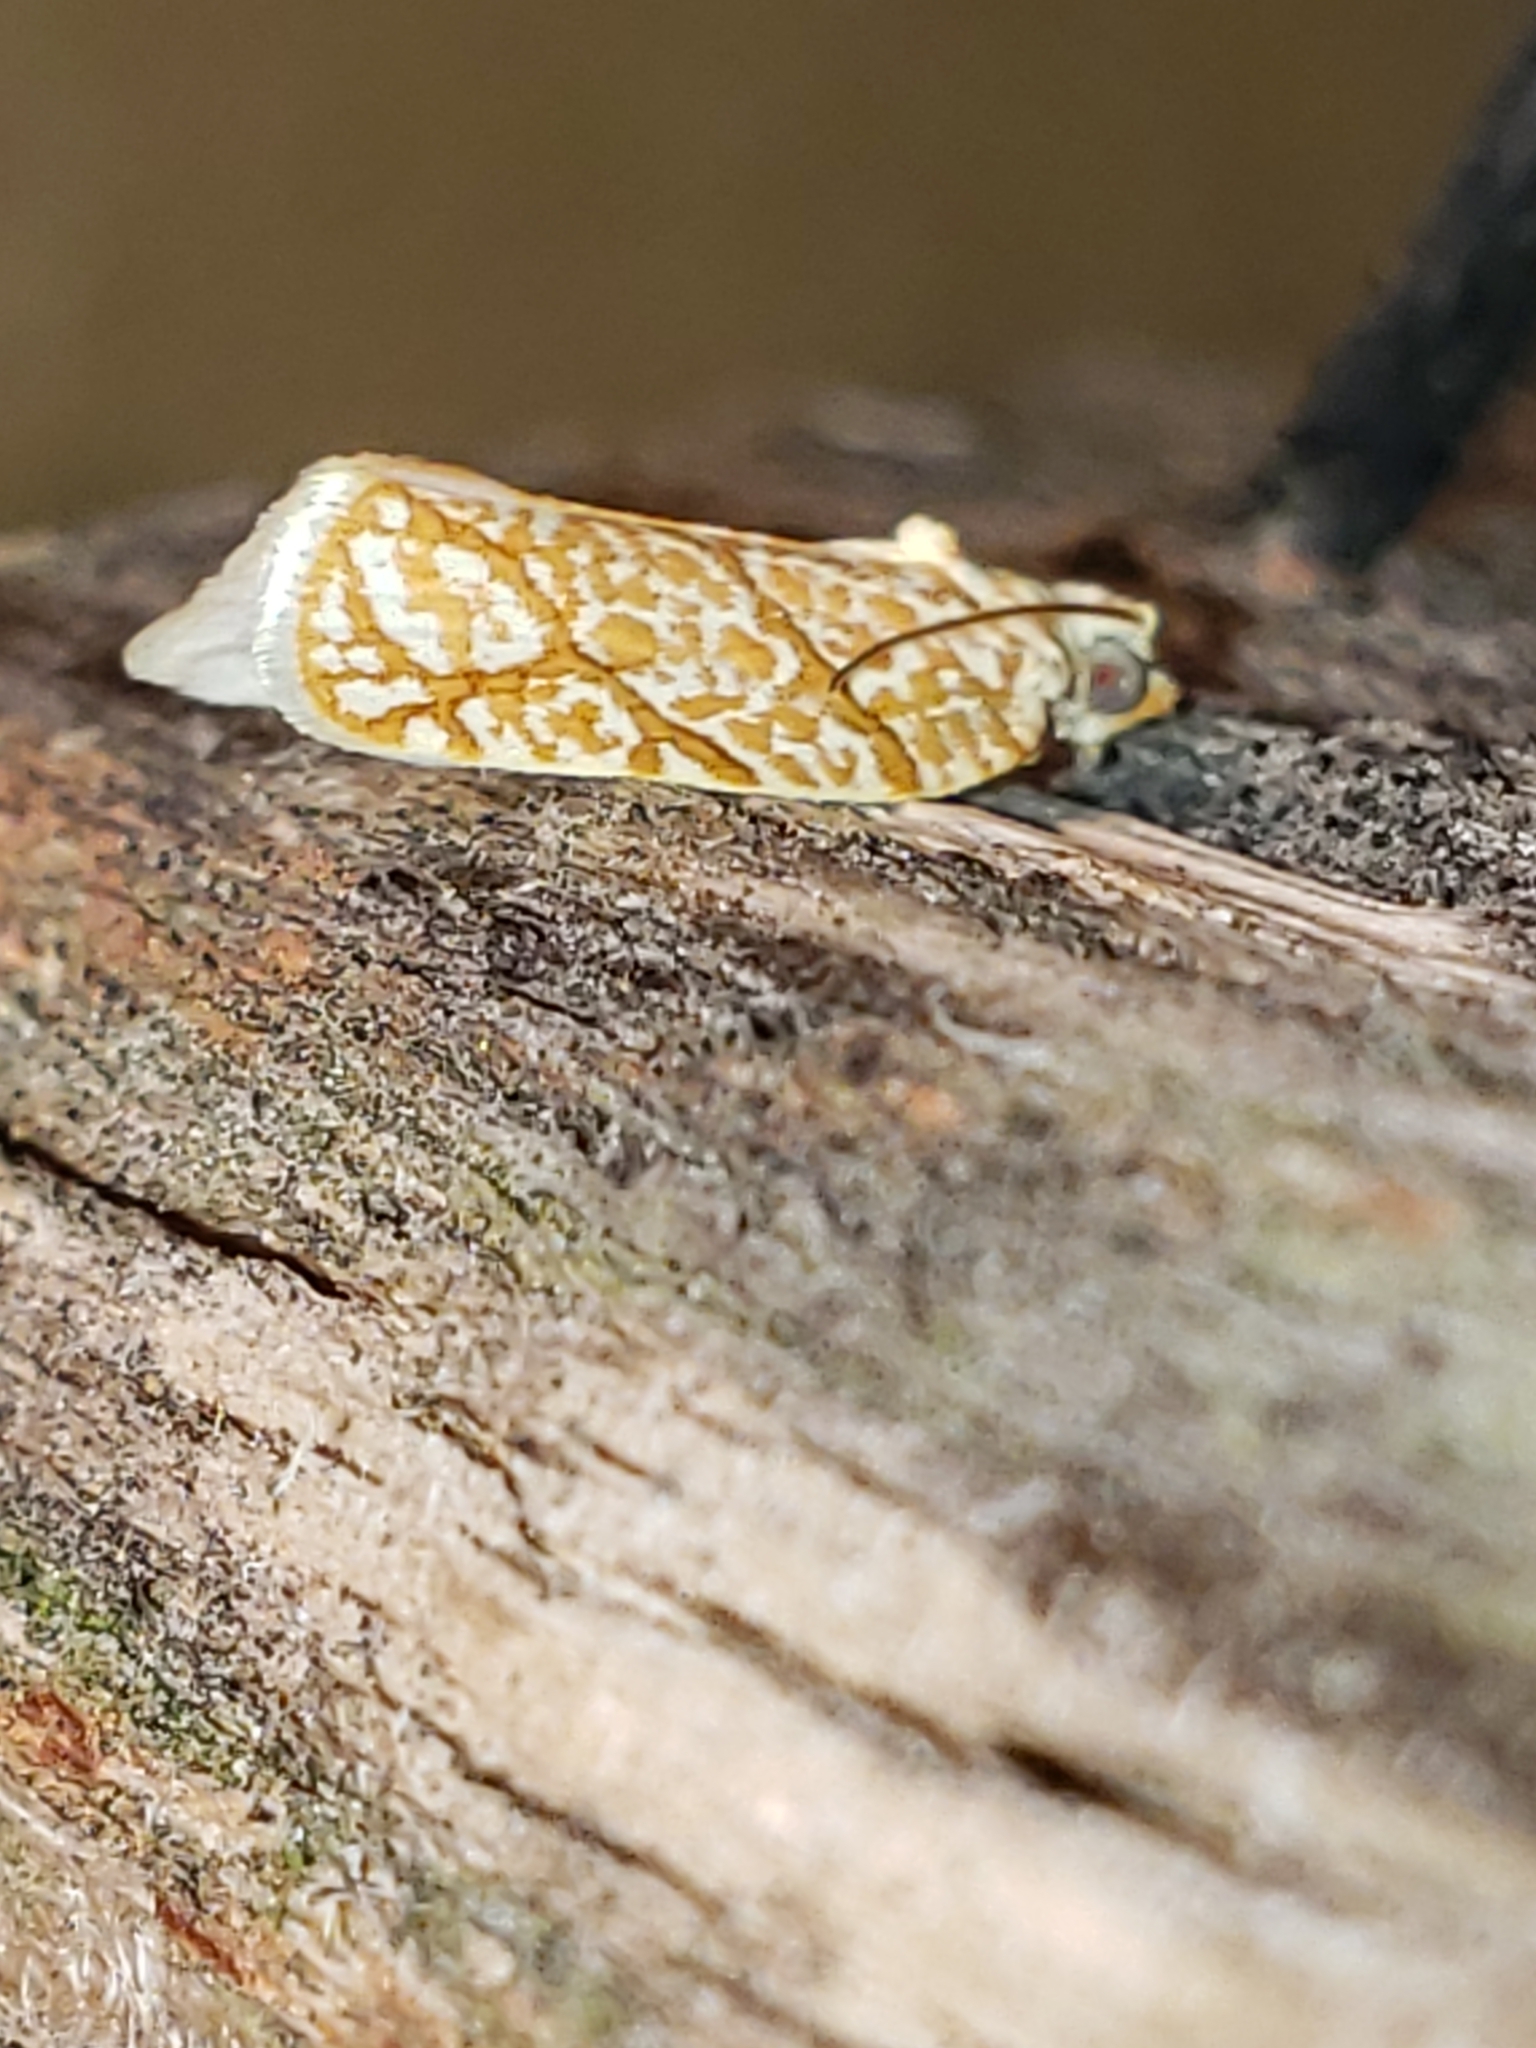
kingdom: Animalia
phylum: Arthropoda
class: Insecta
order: Lepidoptera
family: Tortricidae
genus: Argyrotaenia
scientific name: Argyrotaenia quercifoliana
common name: Yellow-winged oak leafroller moth
